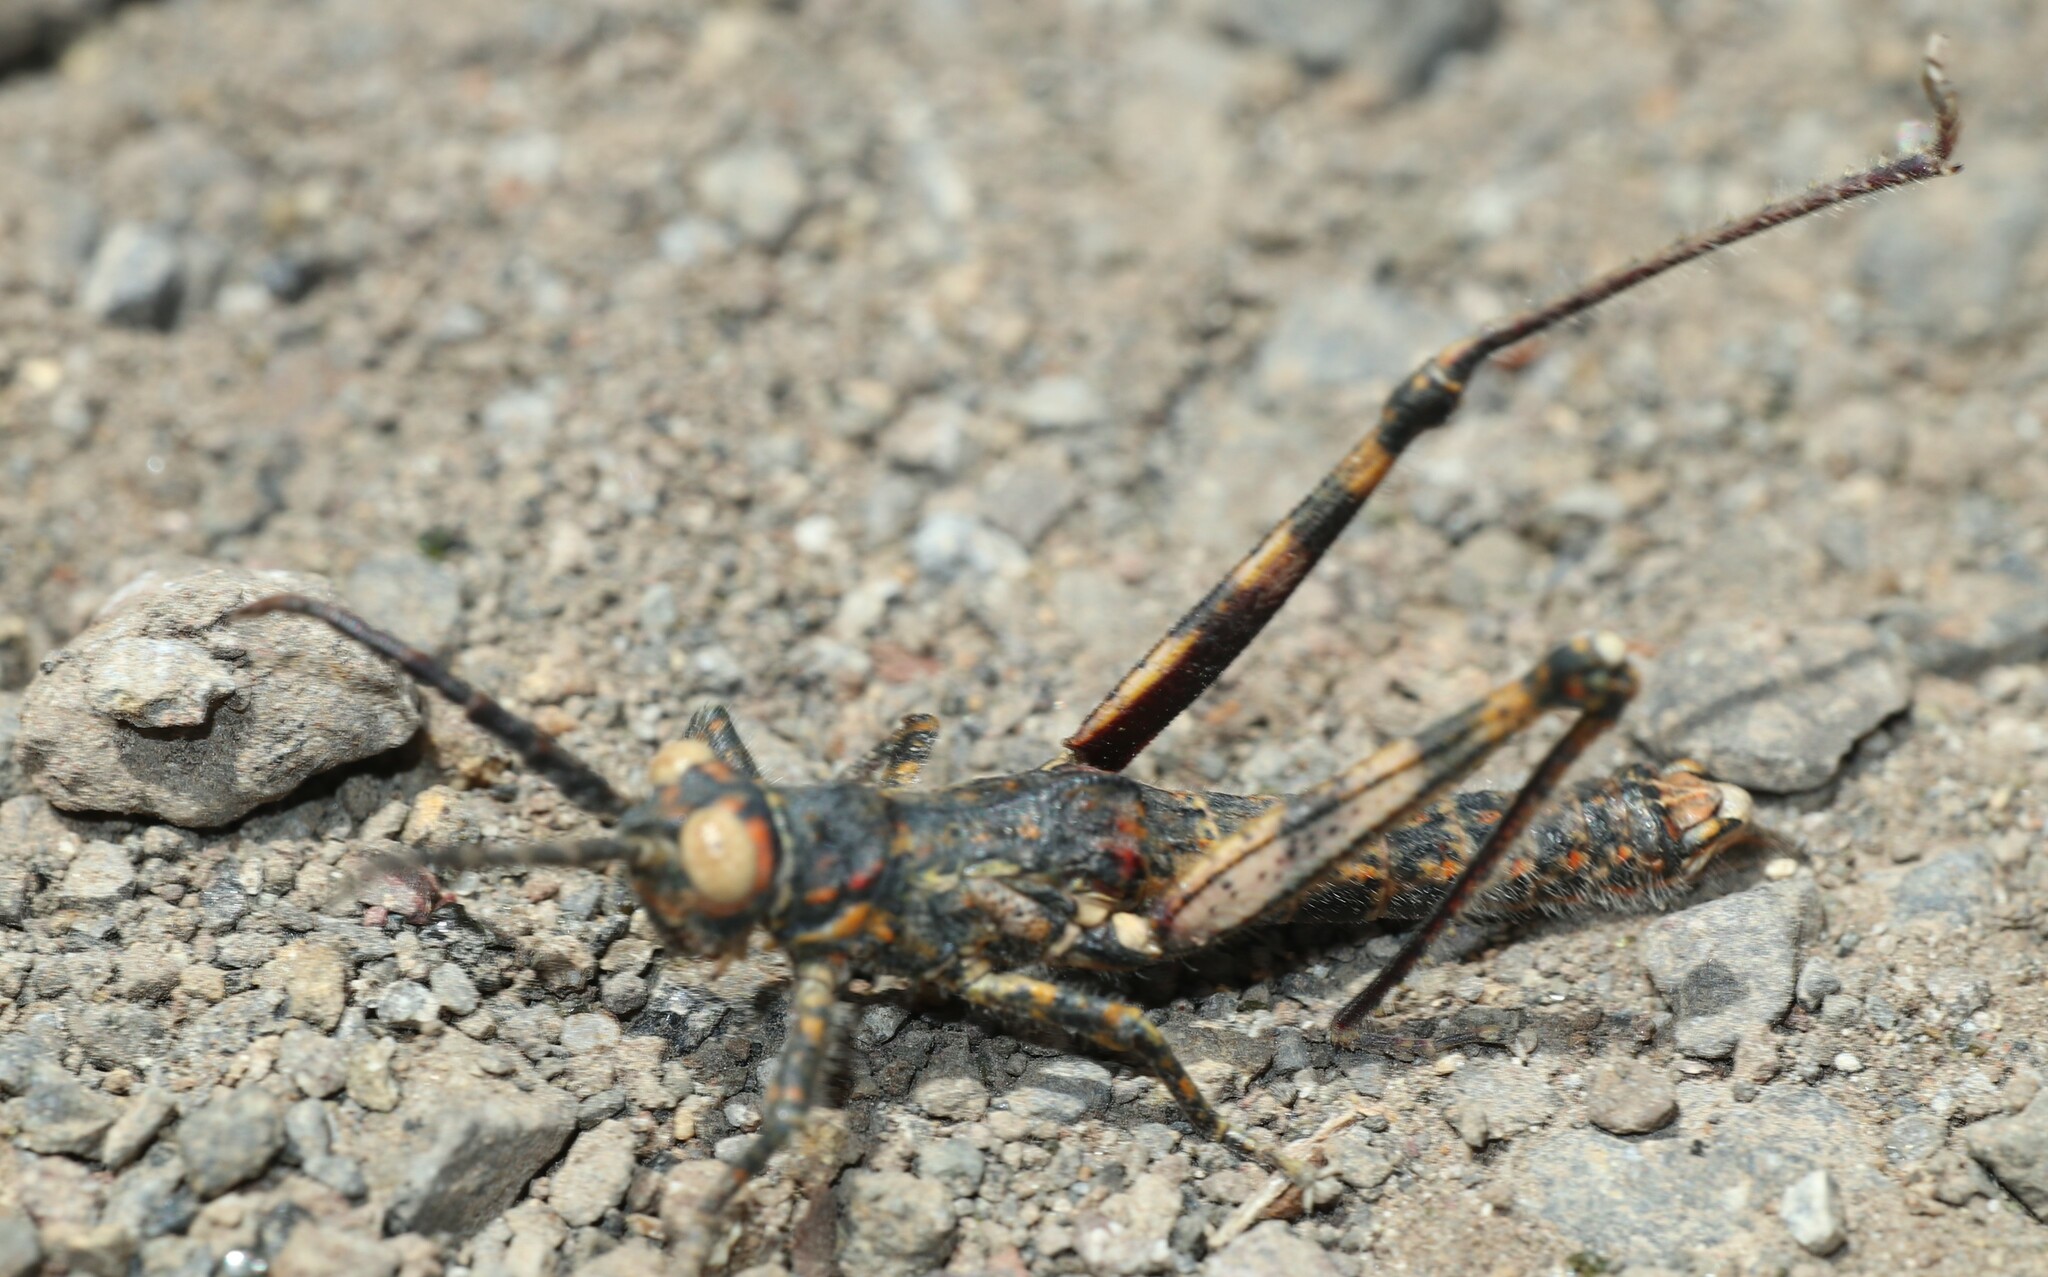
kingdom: Animalia
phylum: Arthropoda
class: Insecta
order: Orthoptera
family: Pamphagidae
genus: Acrostira
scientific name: Acrostira bellamyi
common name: Gomera stick grasshopper
